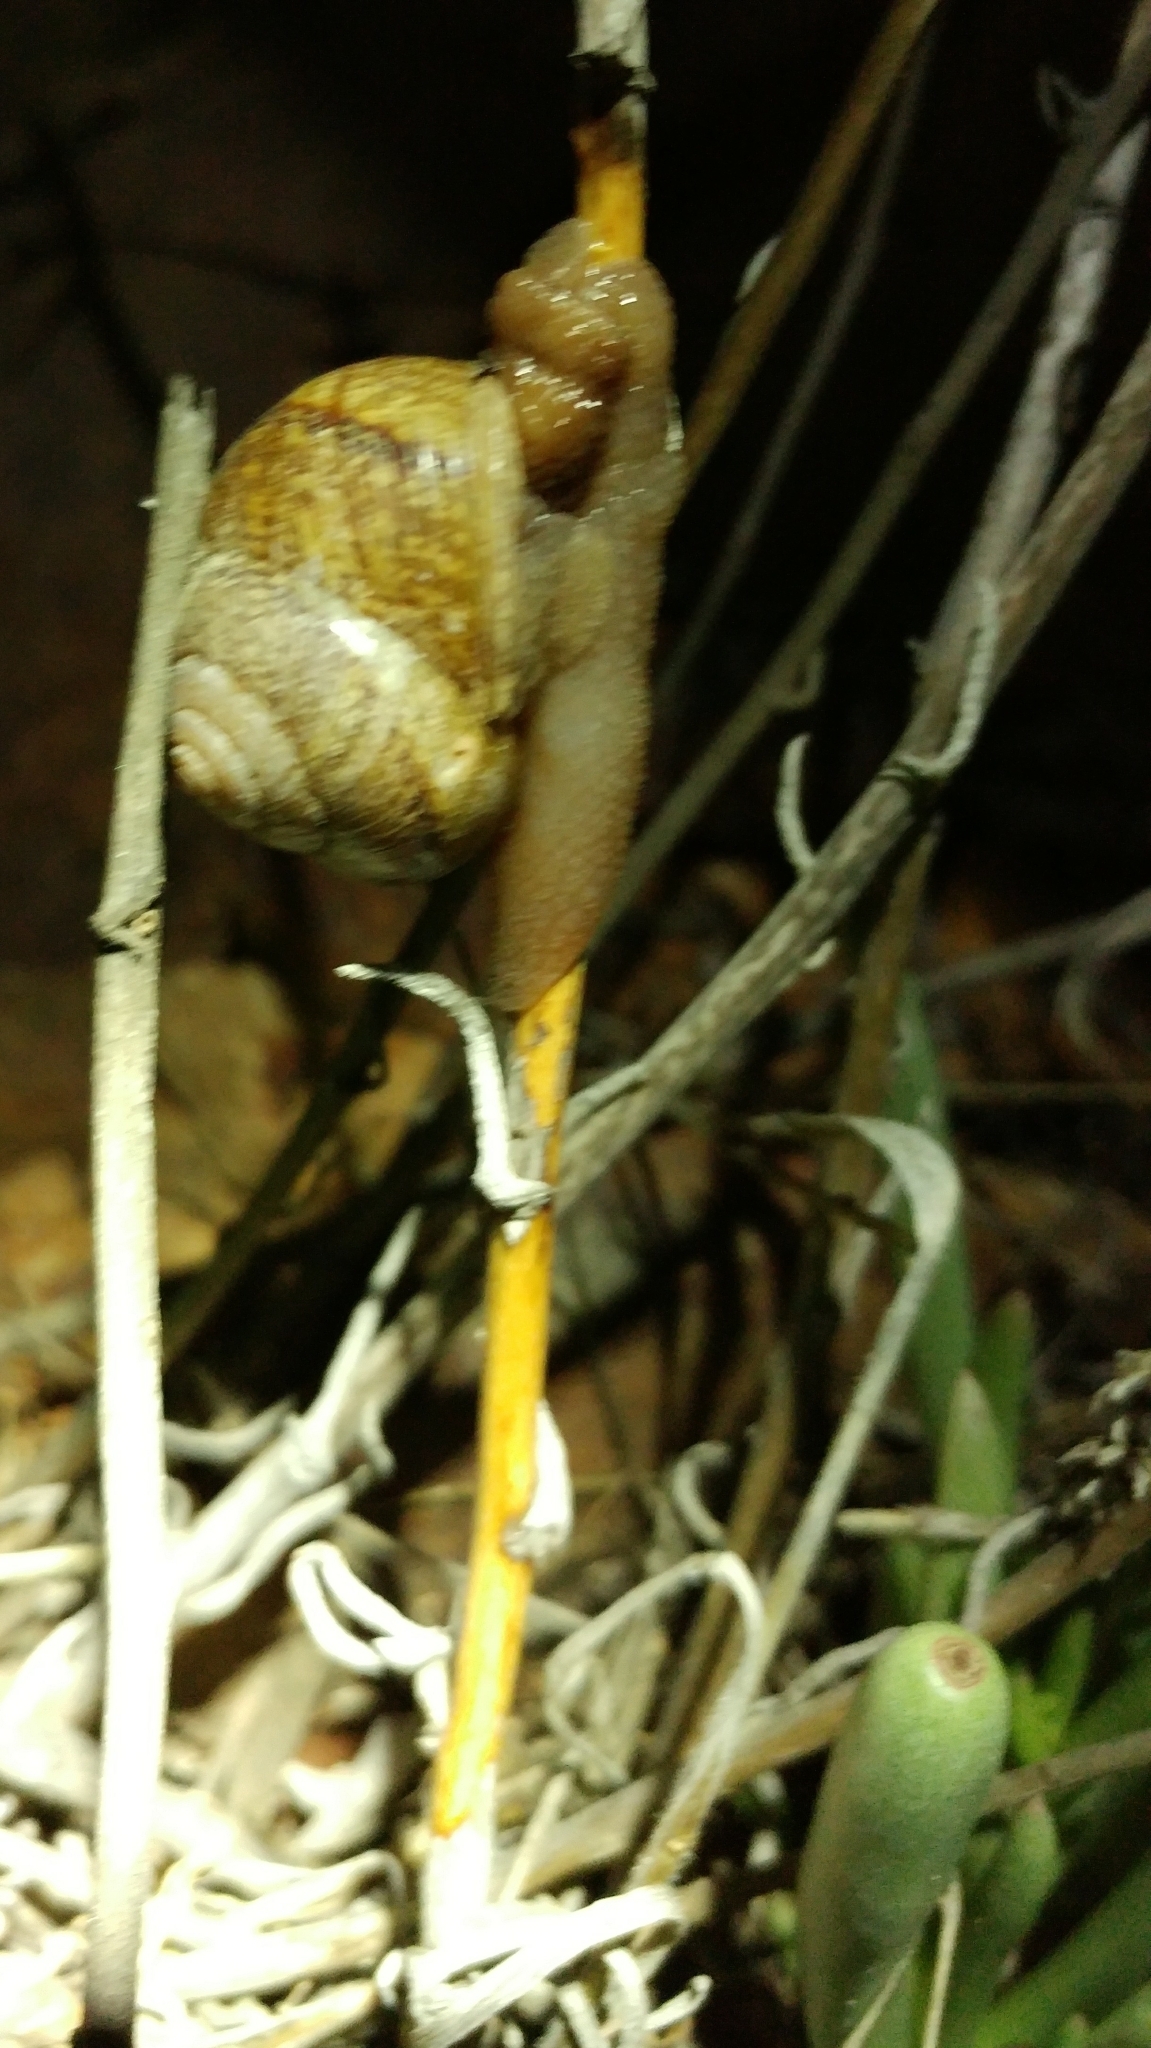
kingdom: Animalia
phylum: Mollusca
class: Gastropoda
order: Stylommatophora
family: Xanthonychidae
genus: Xerarionta
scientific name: Xerarionta stearnsiana
